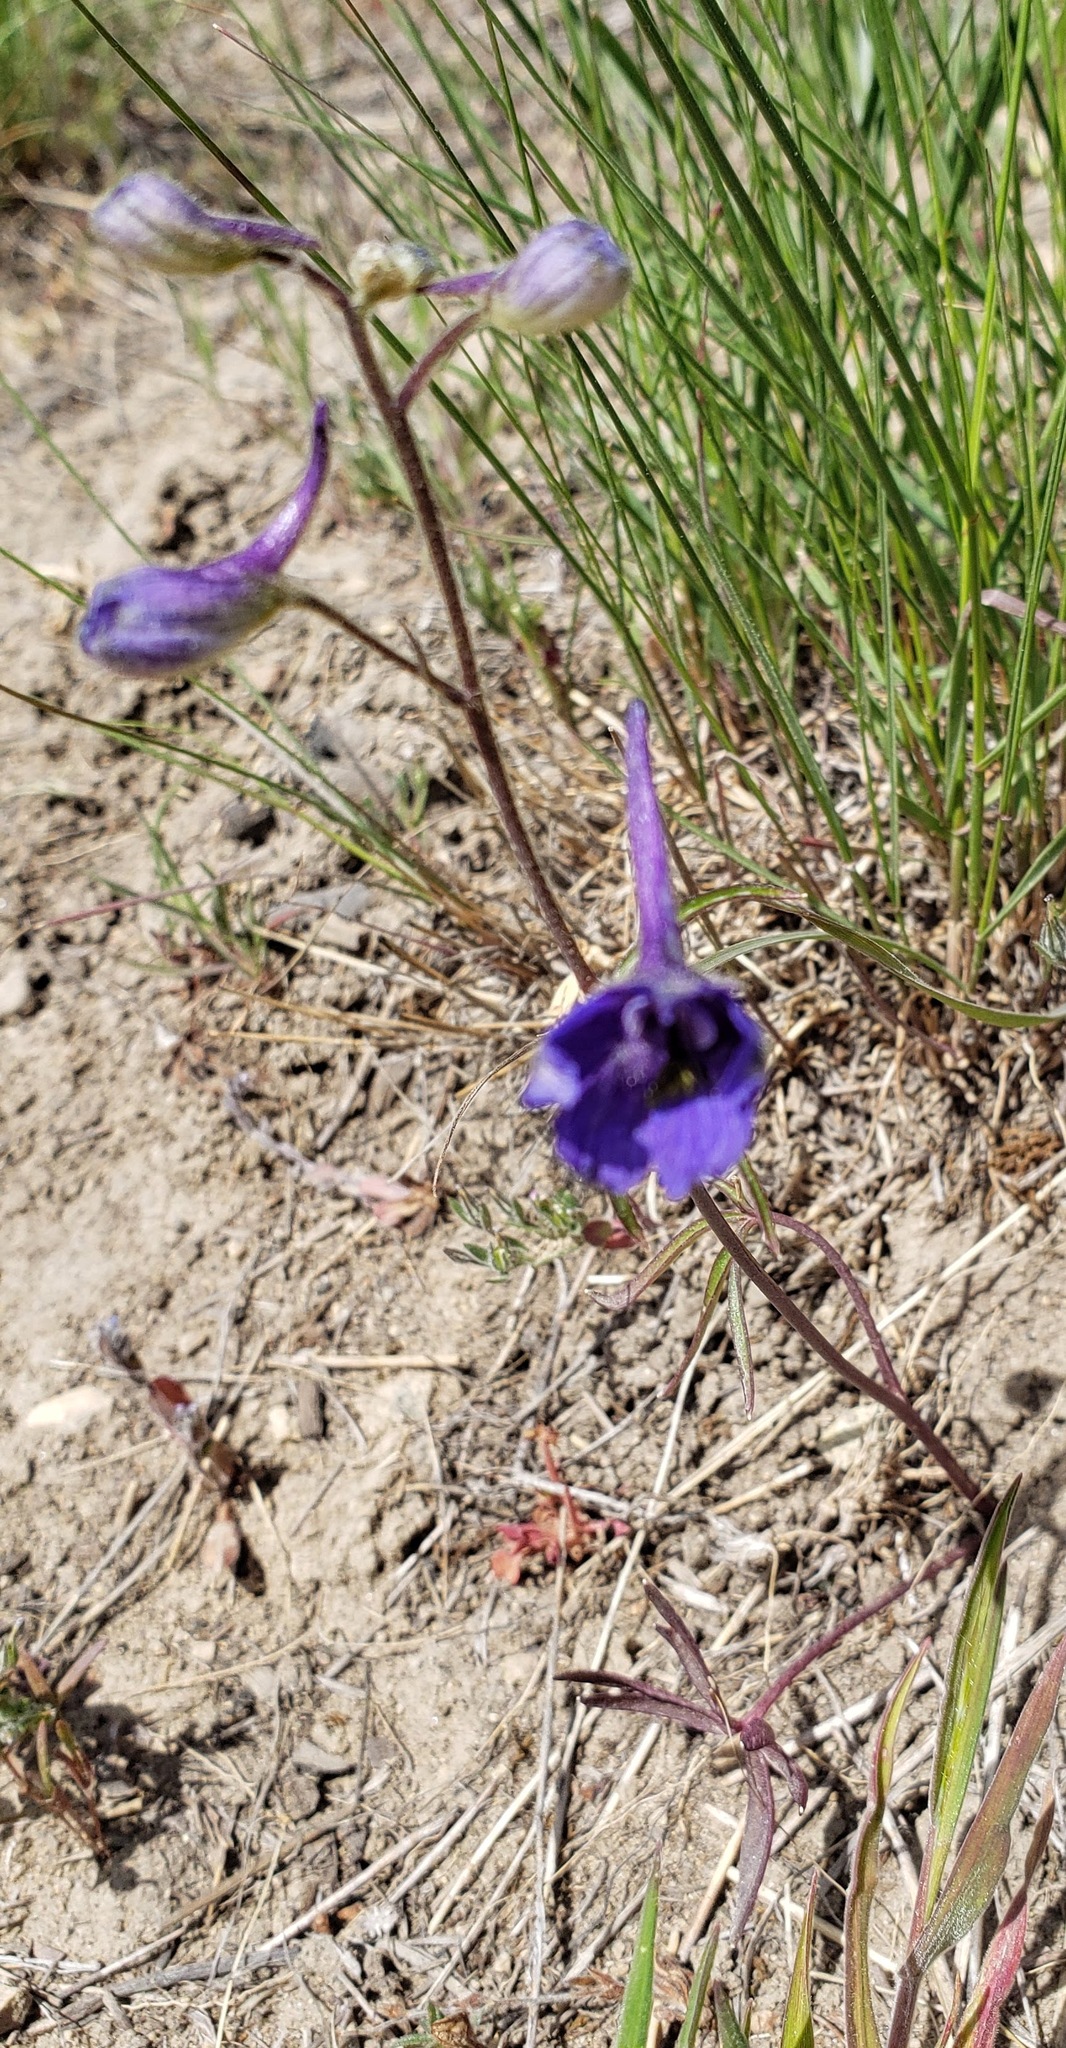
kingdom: Plantae
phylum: Tracheophyta
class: Magnoliopsida
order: Ranunculales
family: Ranunculaceae
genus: Delphinium
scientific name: Delphinium nuttallianum
